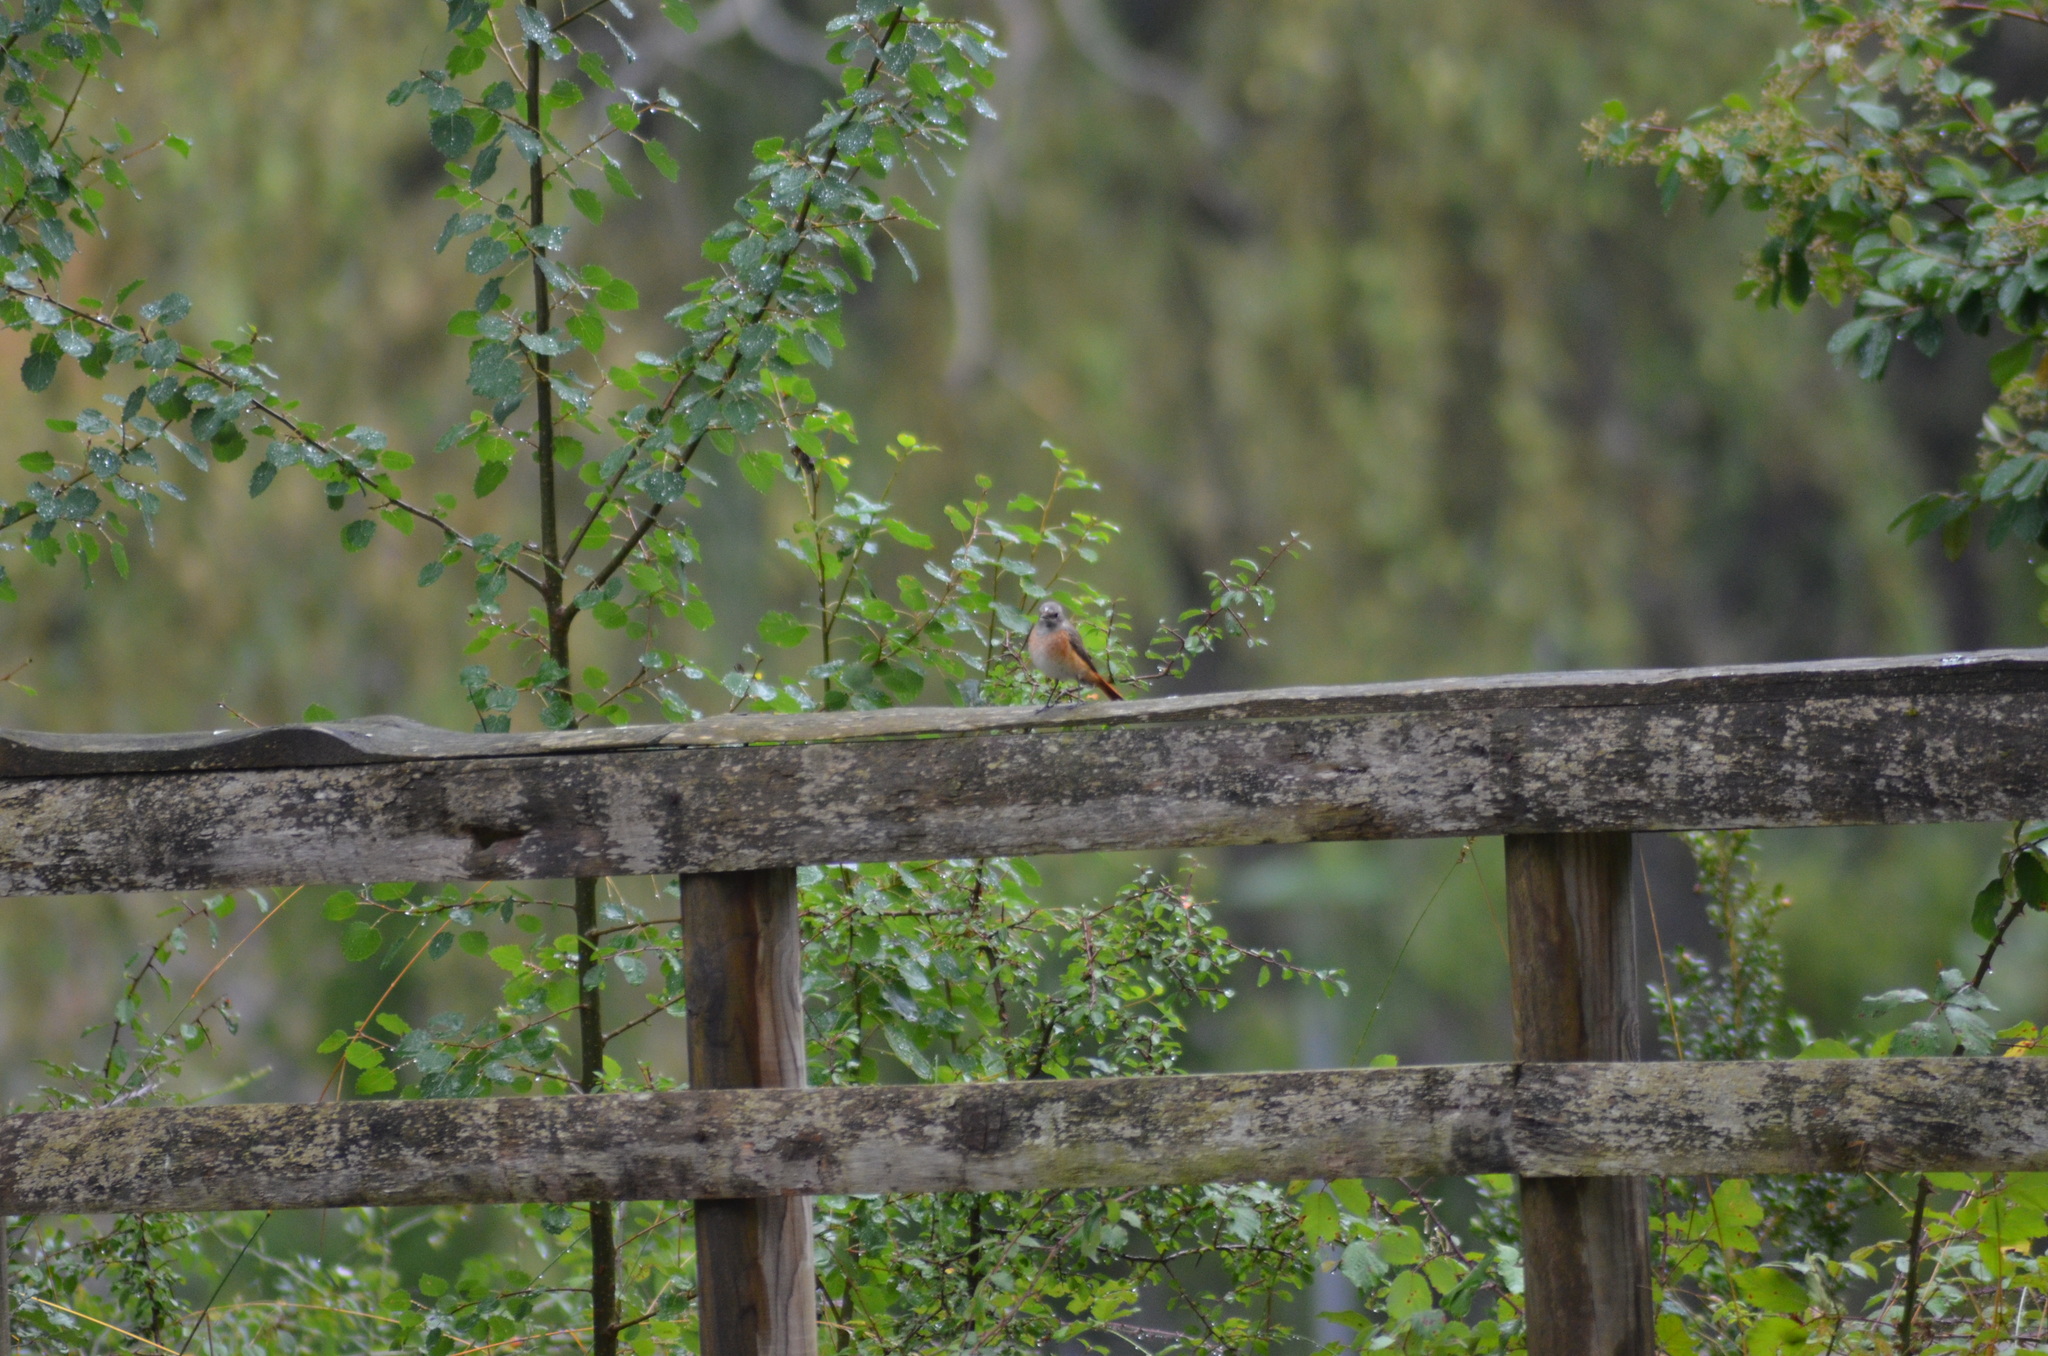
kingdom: Animalia
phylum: Chordata
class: Aves
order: Passeriformes
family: Muscicapidae
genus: Phoenicurus
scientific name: Phoenicurus phoenicurus
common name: Common redstart
